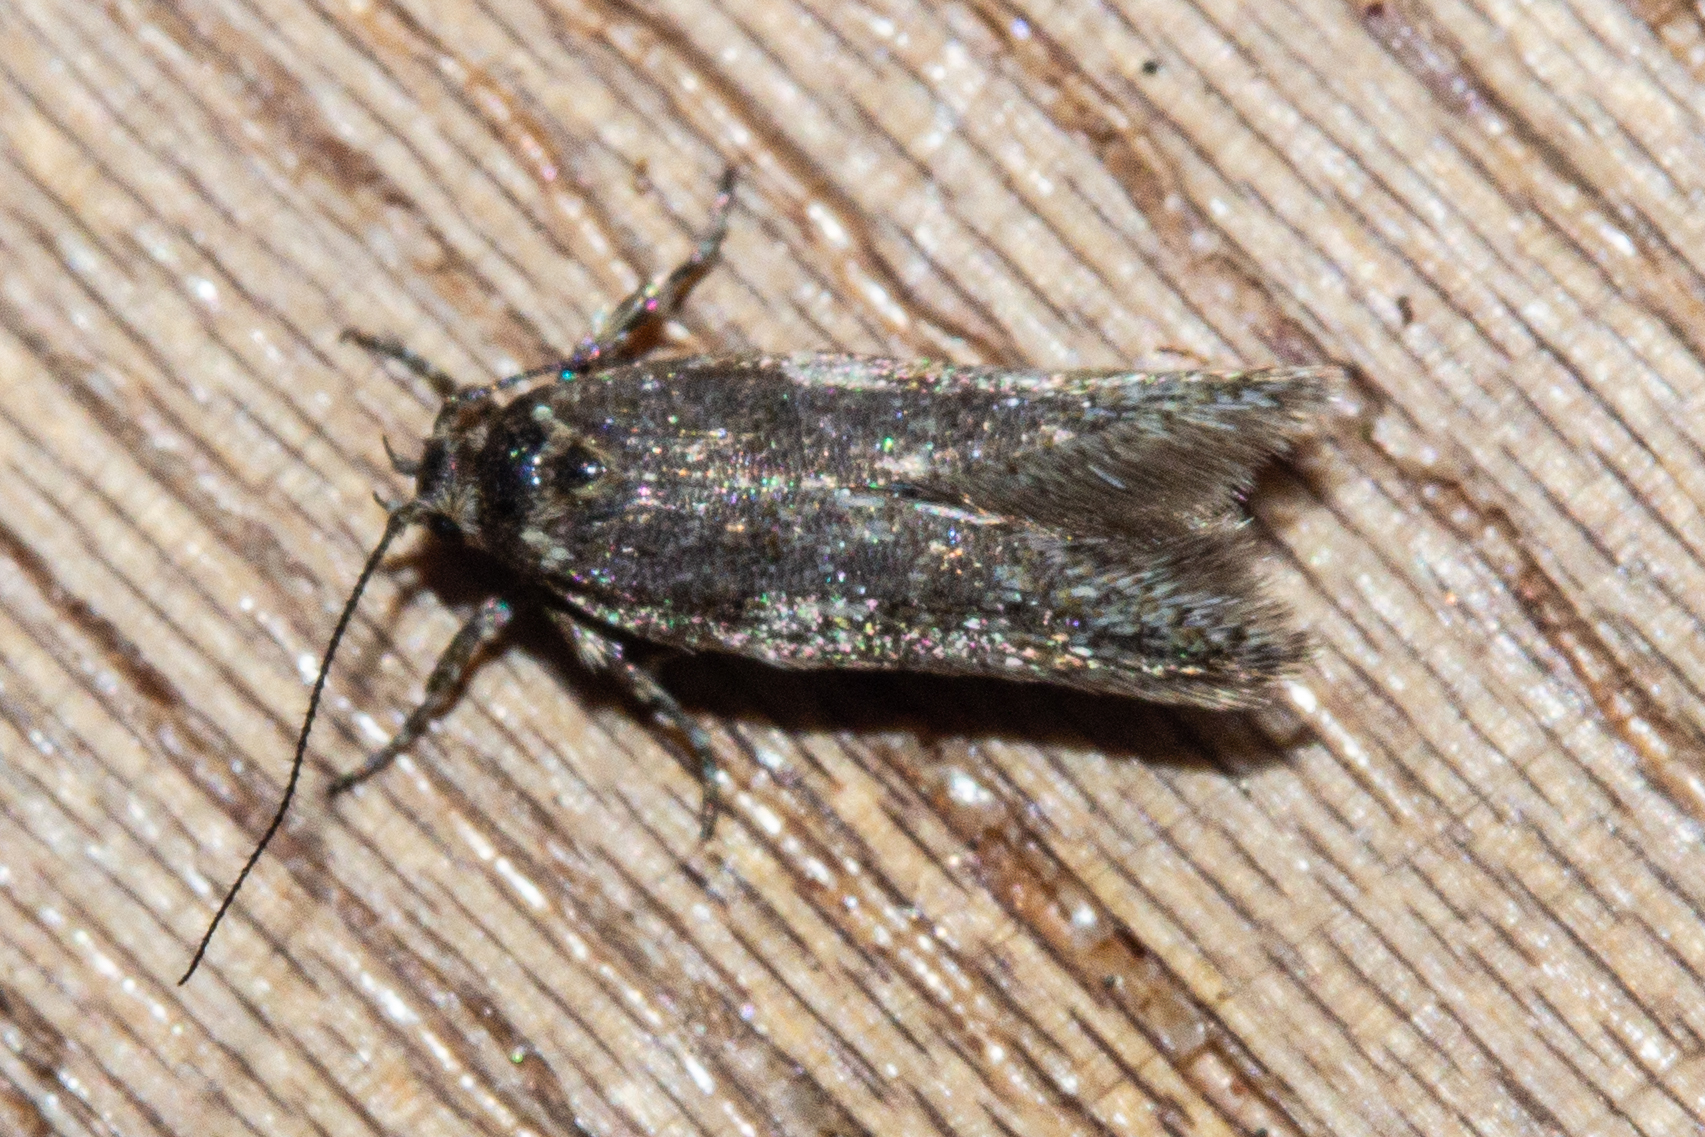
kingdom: Animalia
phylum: Arthropoda
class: Insecta
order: Lepidoptera
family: Oecophoridae
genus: Prepalla
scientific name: Prepalla
